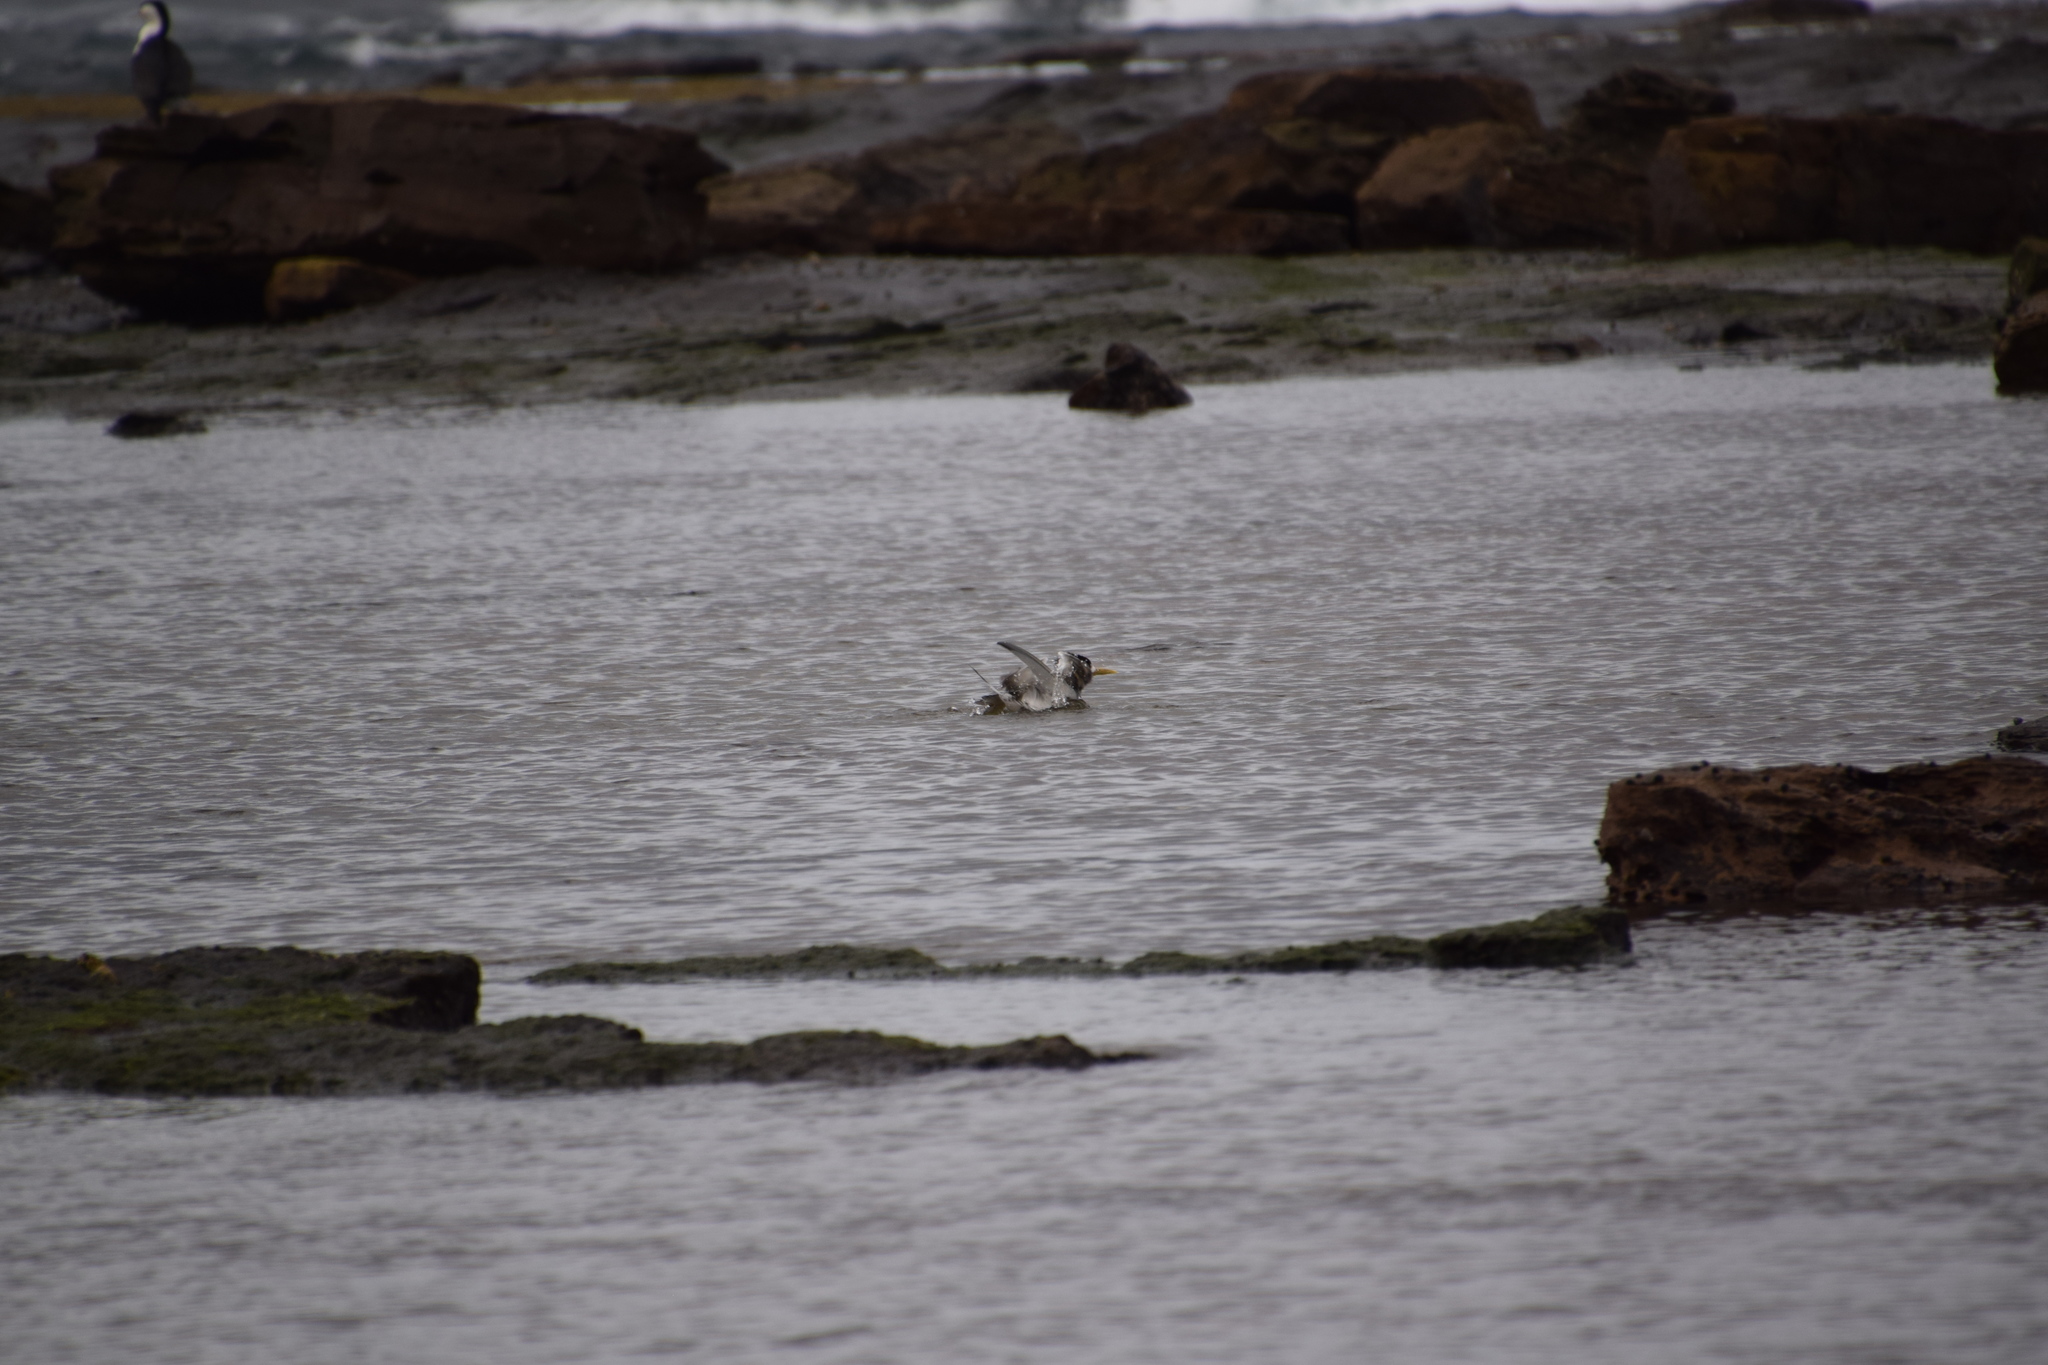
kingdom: Animalia
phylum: Chordata
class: Aves
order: Charadriiformes
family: Laridae
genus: Thalasseus
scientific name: Thalasseus bergii
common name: Greater crested tern
